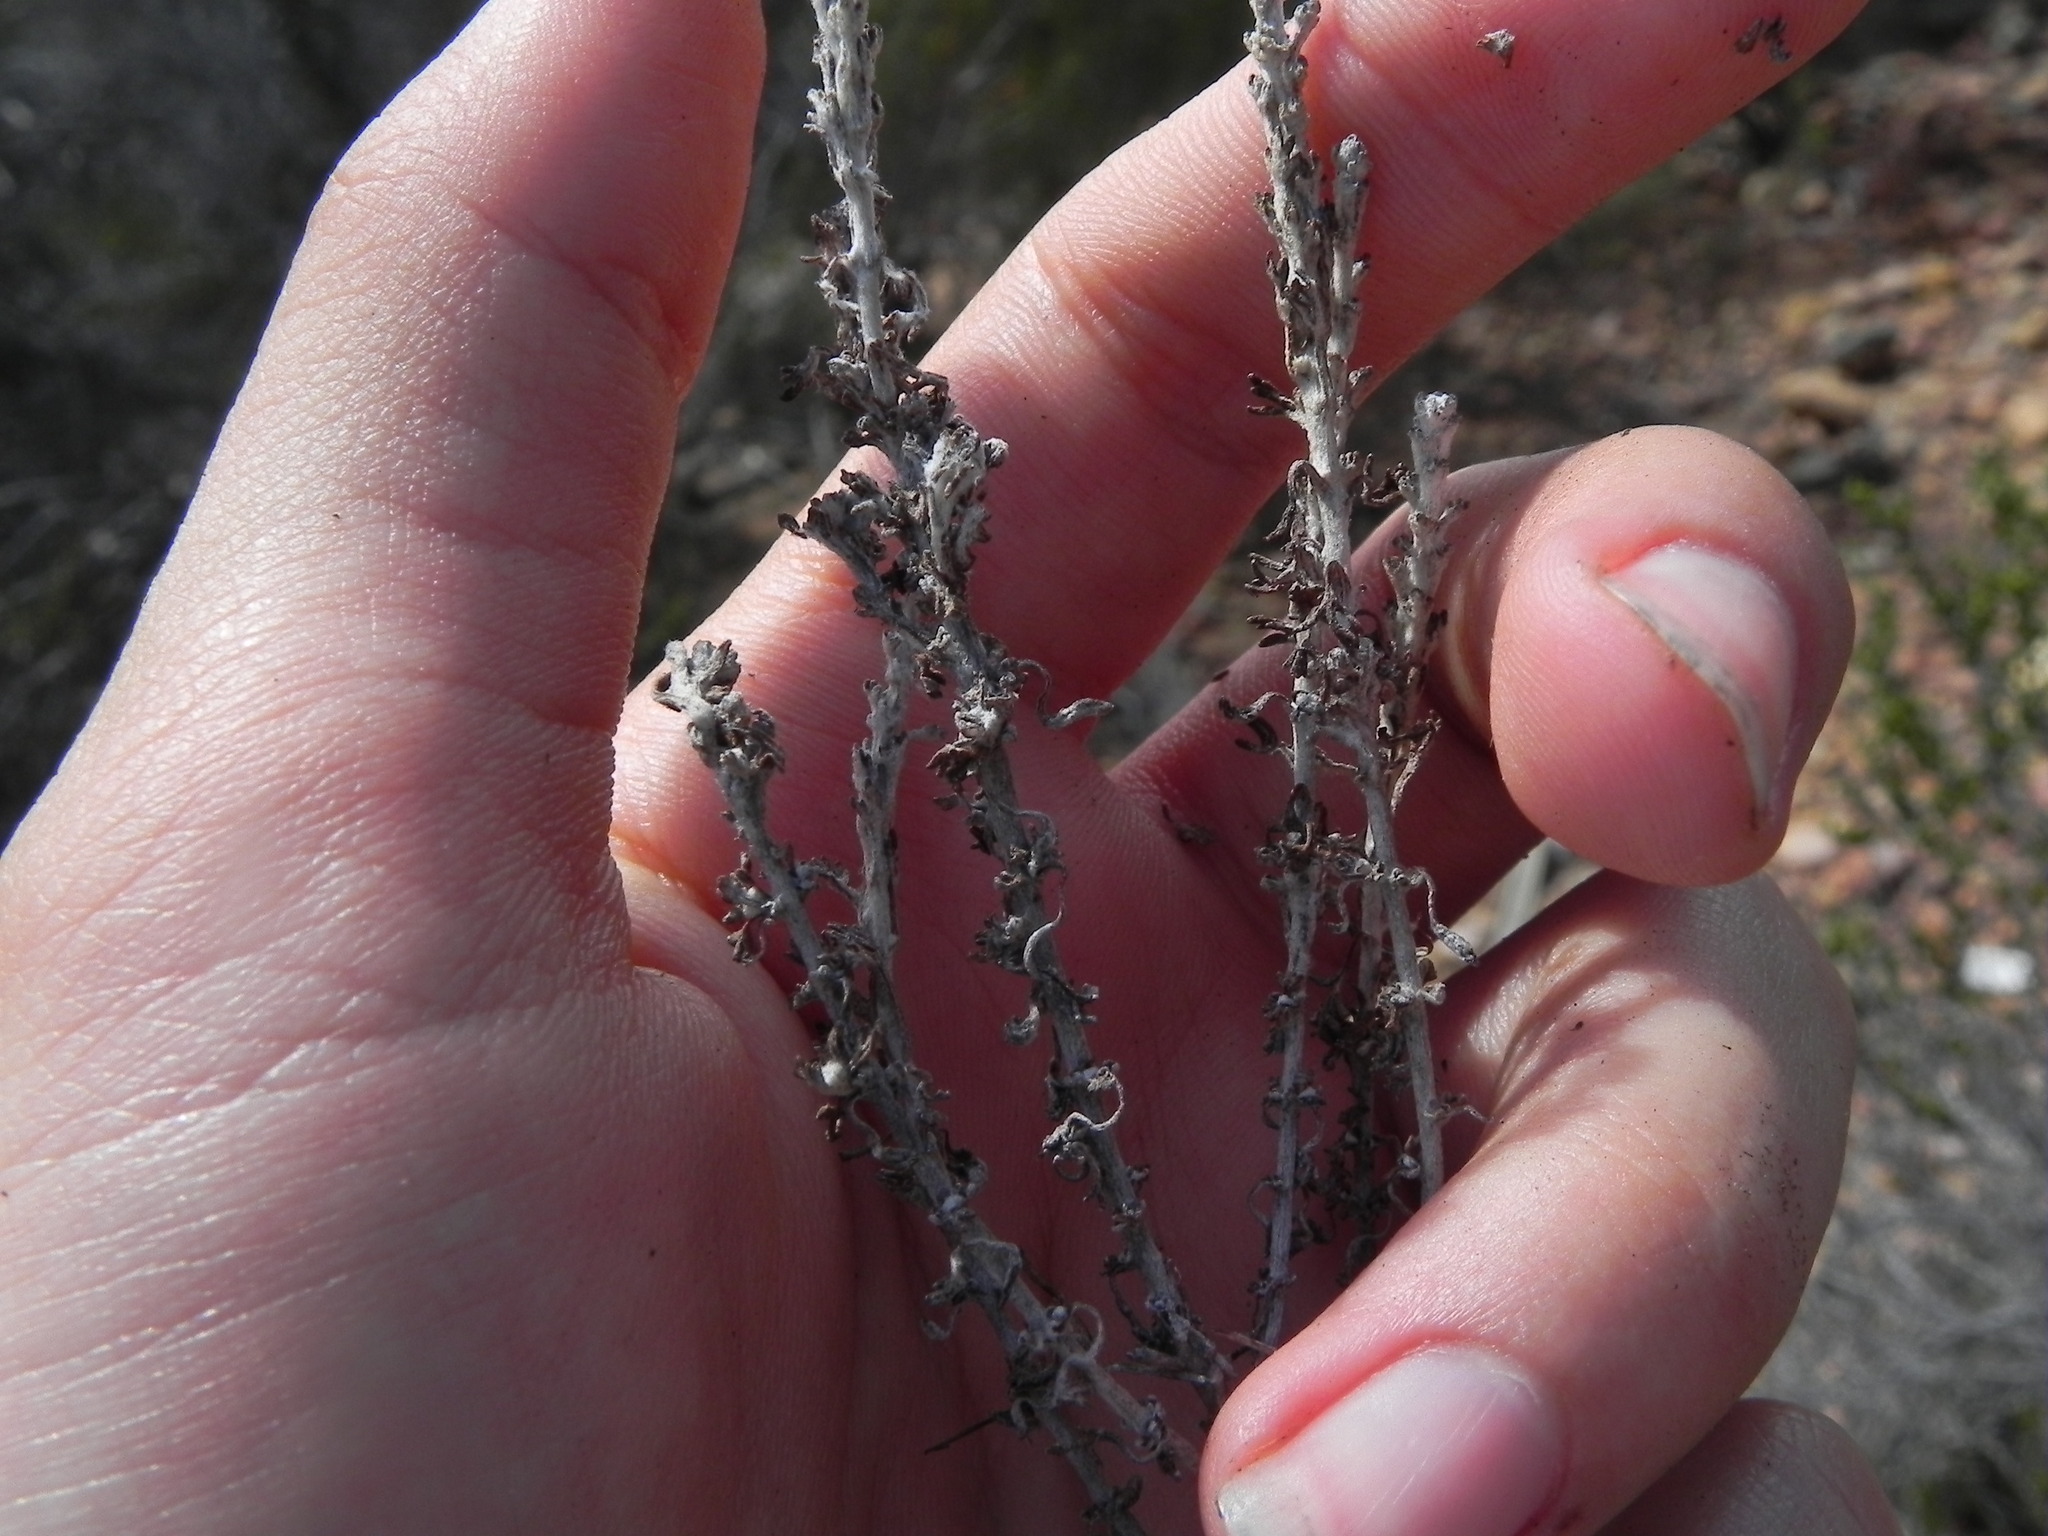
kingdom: Plantae
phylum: Tracheophyta
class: Magnoliopsida
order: Asterales
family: Asteraceae
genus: Eriophyllum
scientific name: Eriophyllum confertiflorum
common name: Golden-yarrow
